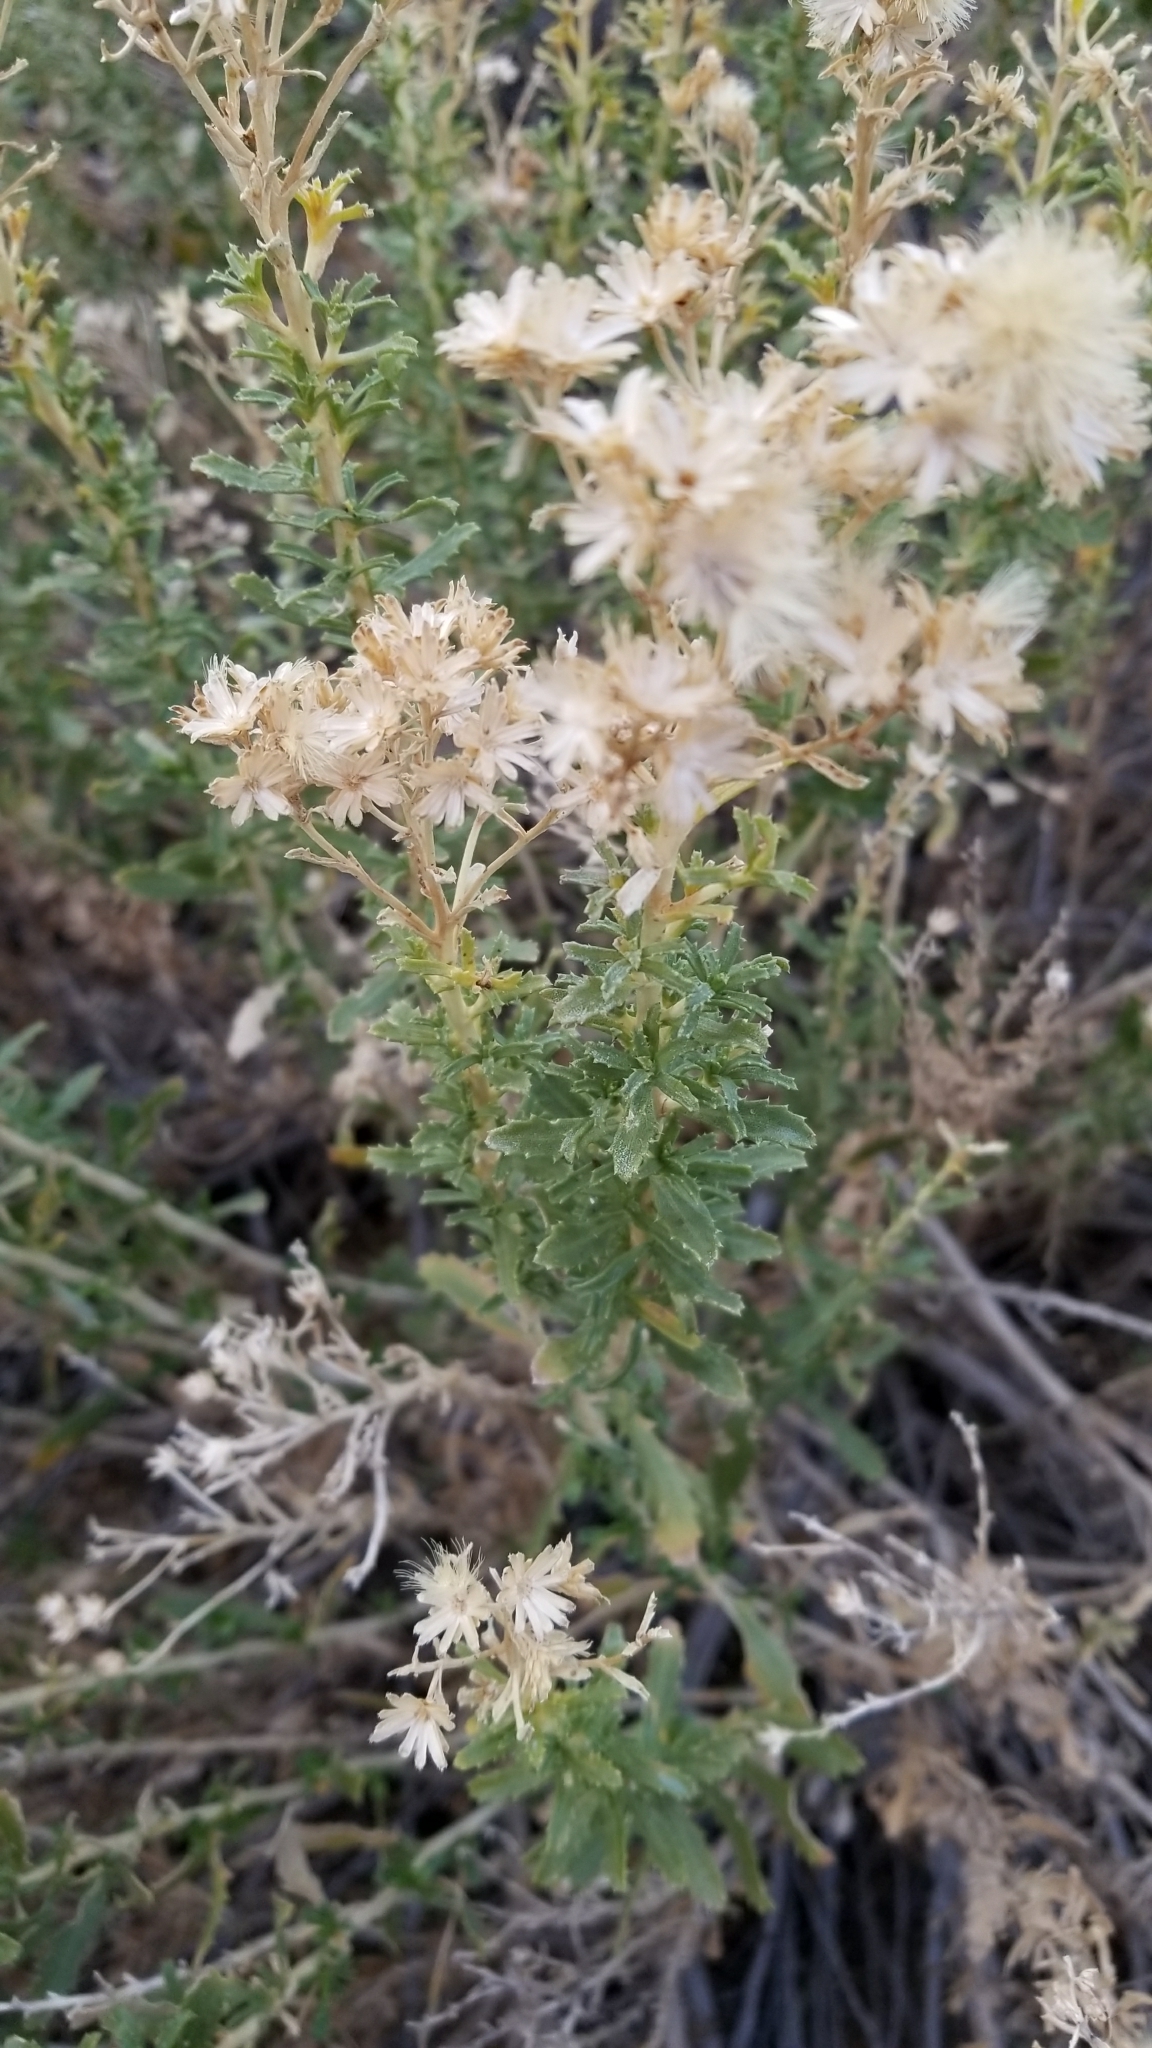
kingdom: Plantae
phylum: Tracheophyta
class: Magnoliopsida
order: Asterales
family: Asteraceae
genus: Isocoma
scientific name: Isocoma acradenia
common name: Alkali jimmyweed
